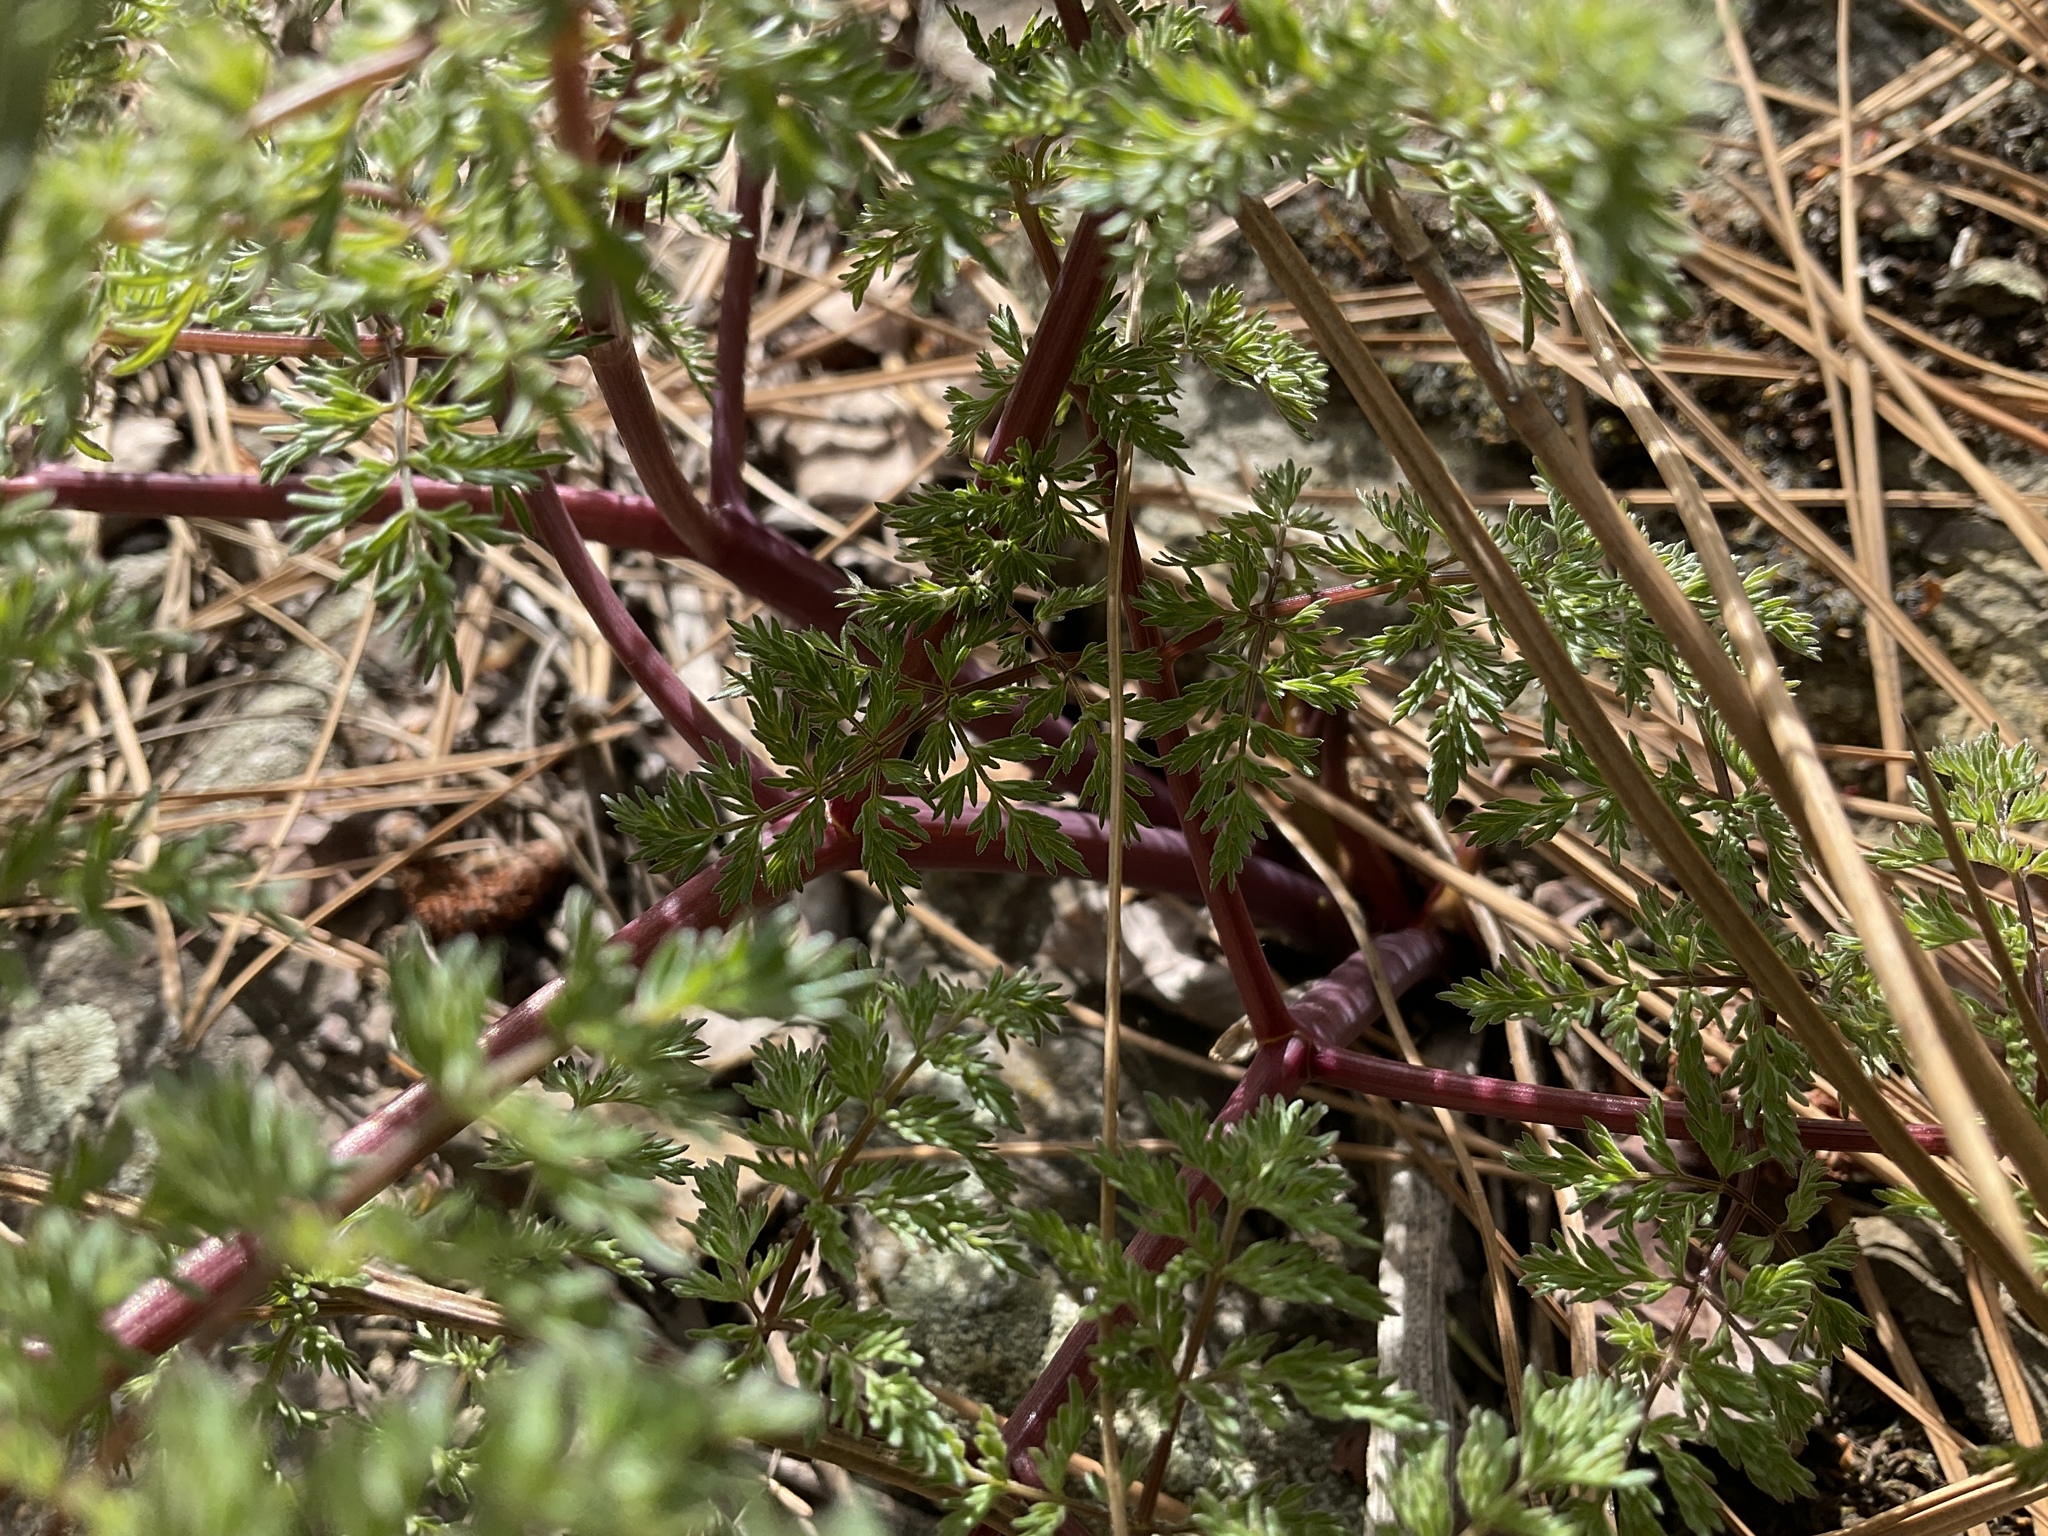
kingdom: Plantae
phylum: Tracheophyta
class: Magnoliopsida
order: Apiales
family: Apiaceae
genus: Lomatium
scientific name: Lomatium multifidum
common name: Carrot-leaved biscuitroot
